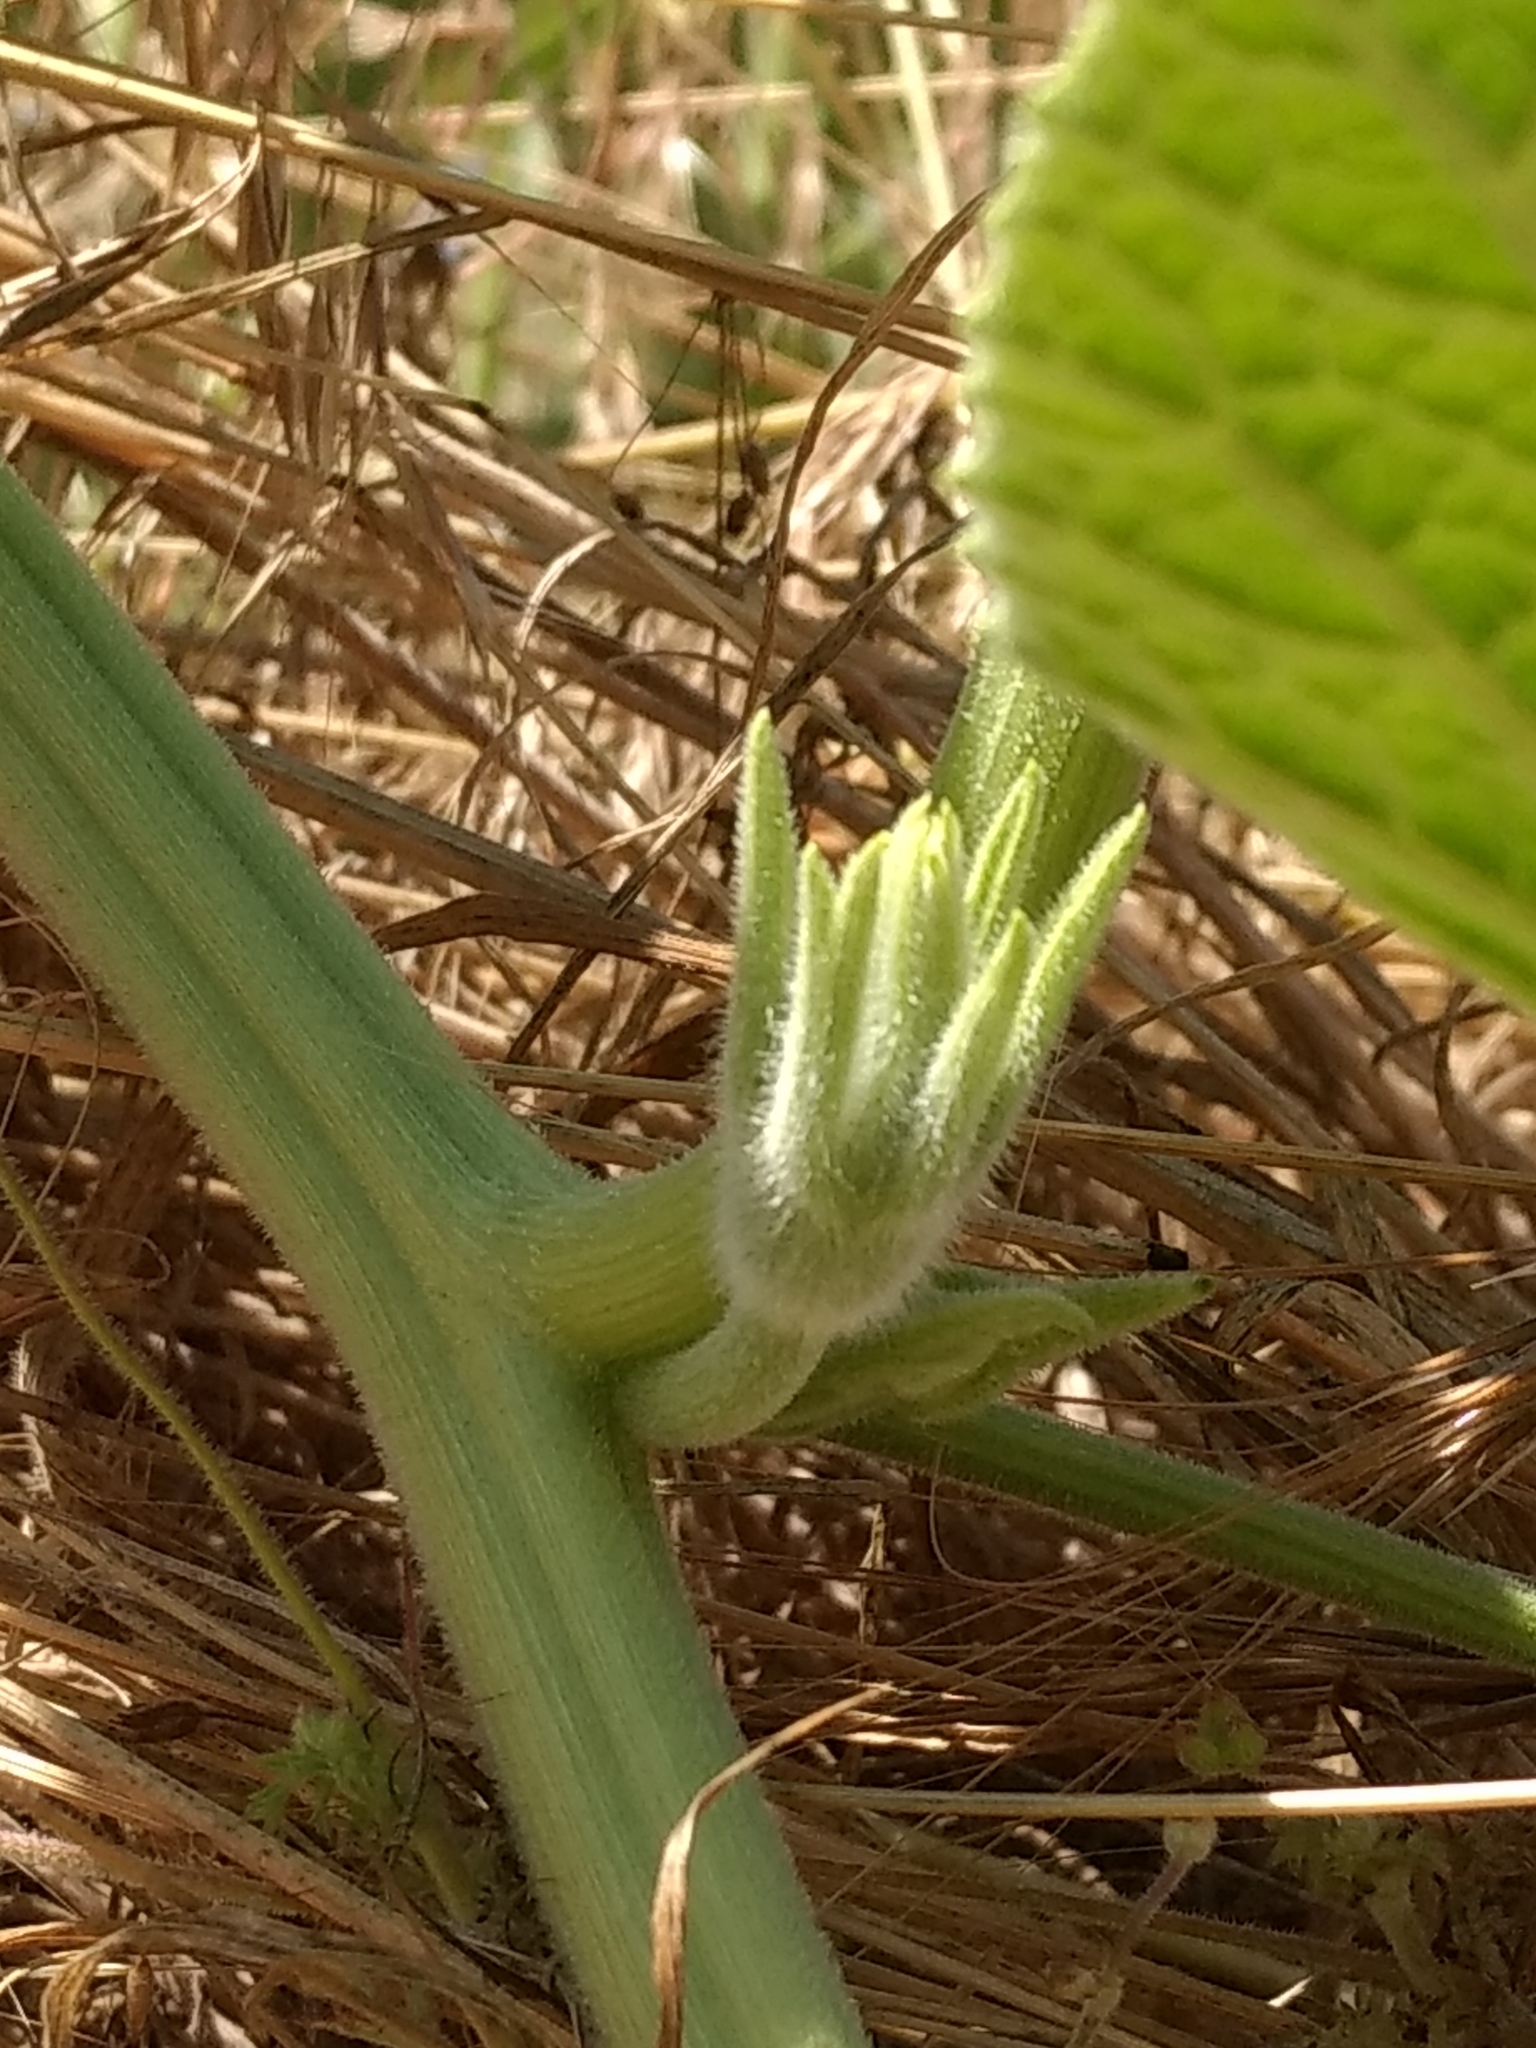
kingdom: Plantae
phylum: Tracheophyta
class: Magnoliopsida
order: Cucurbitales
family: Cucurbitaceae
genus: Cucurbita
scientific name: Cucurbita foetidissima
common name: Buffalo gourd
